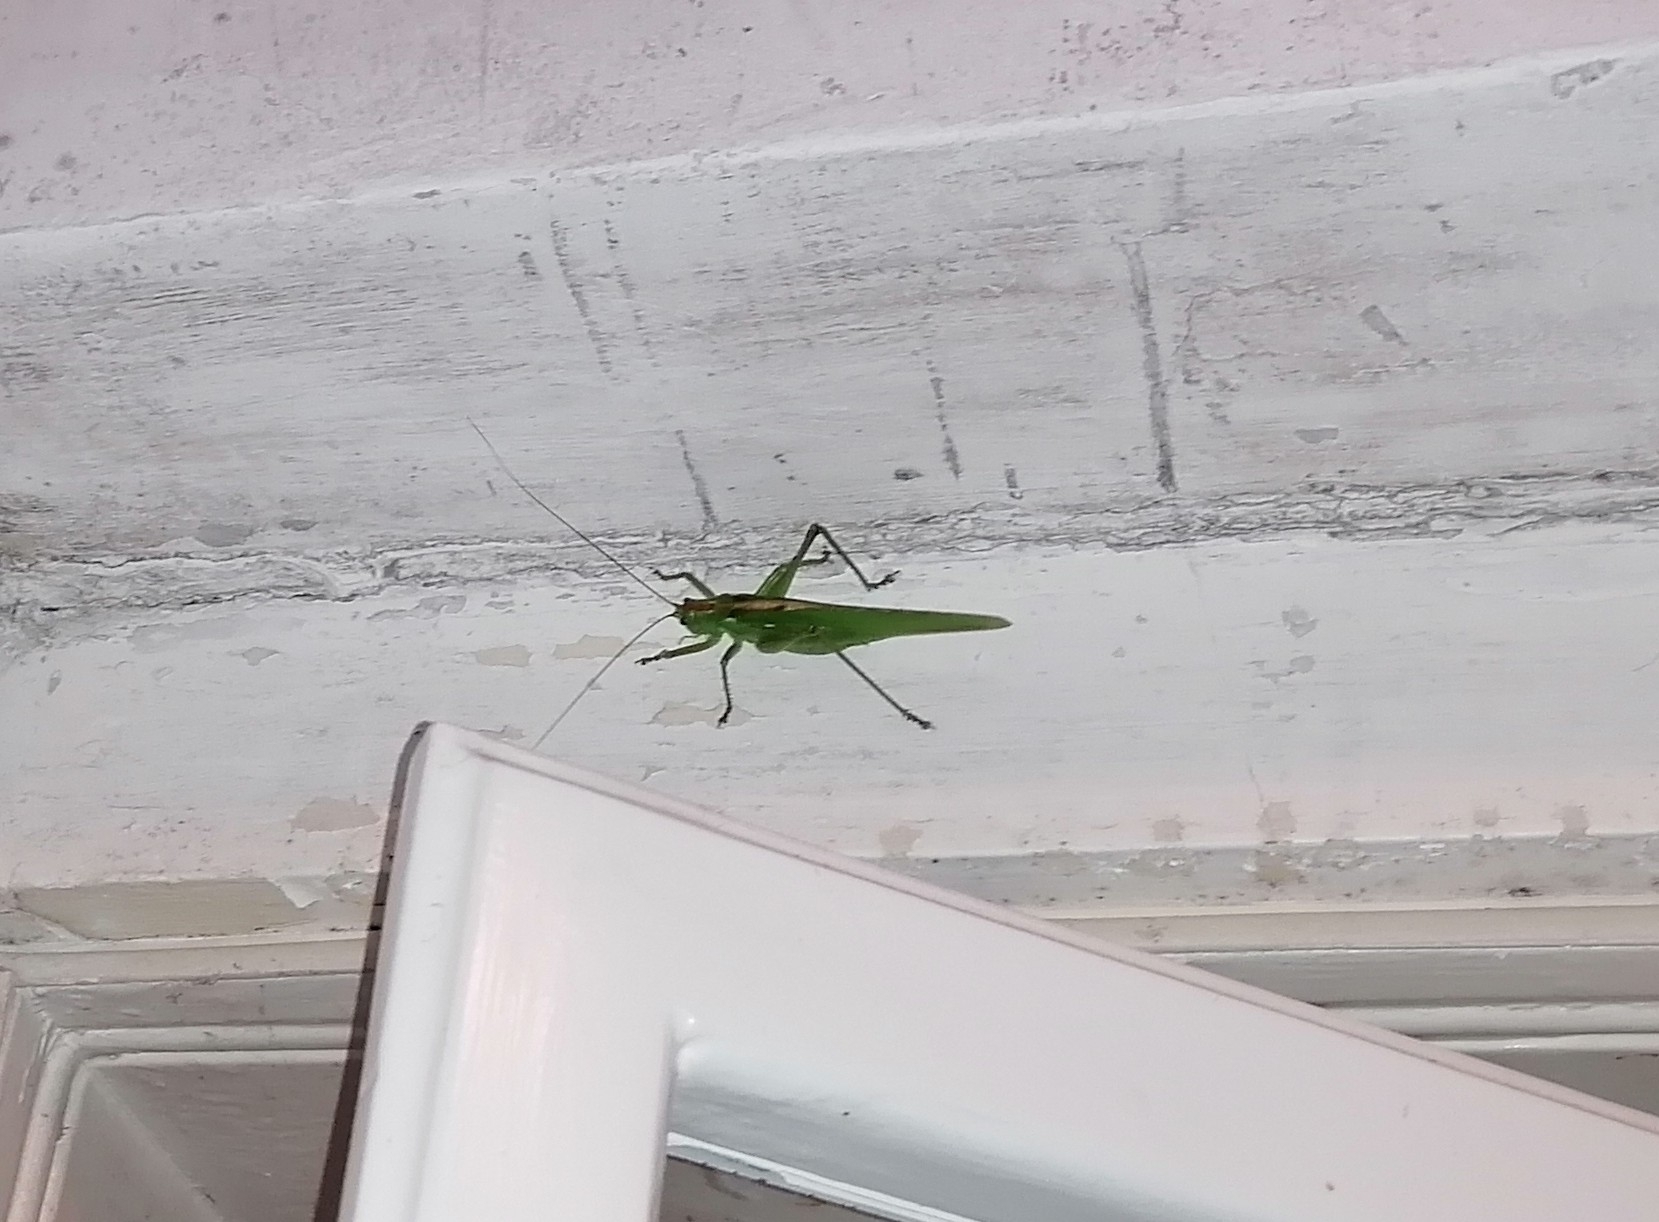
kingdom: Animalia
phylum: Arthropoda
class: Insecta
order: Orthoptera
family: Tettigoniidae
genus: Tettigonia
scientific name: Tettigonia viridissima
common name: Great green bush-cricket
